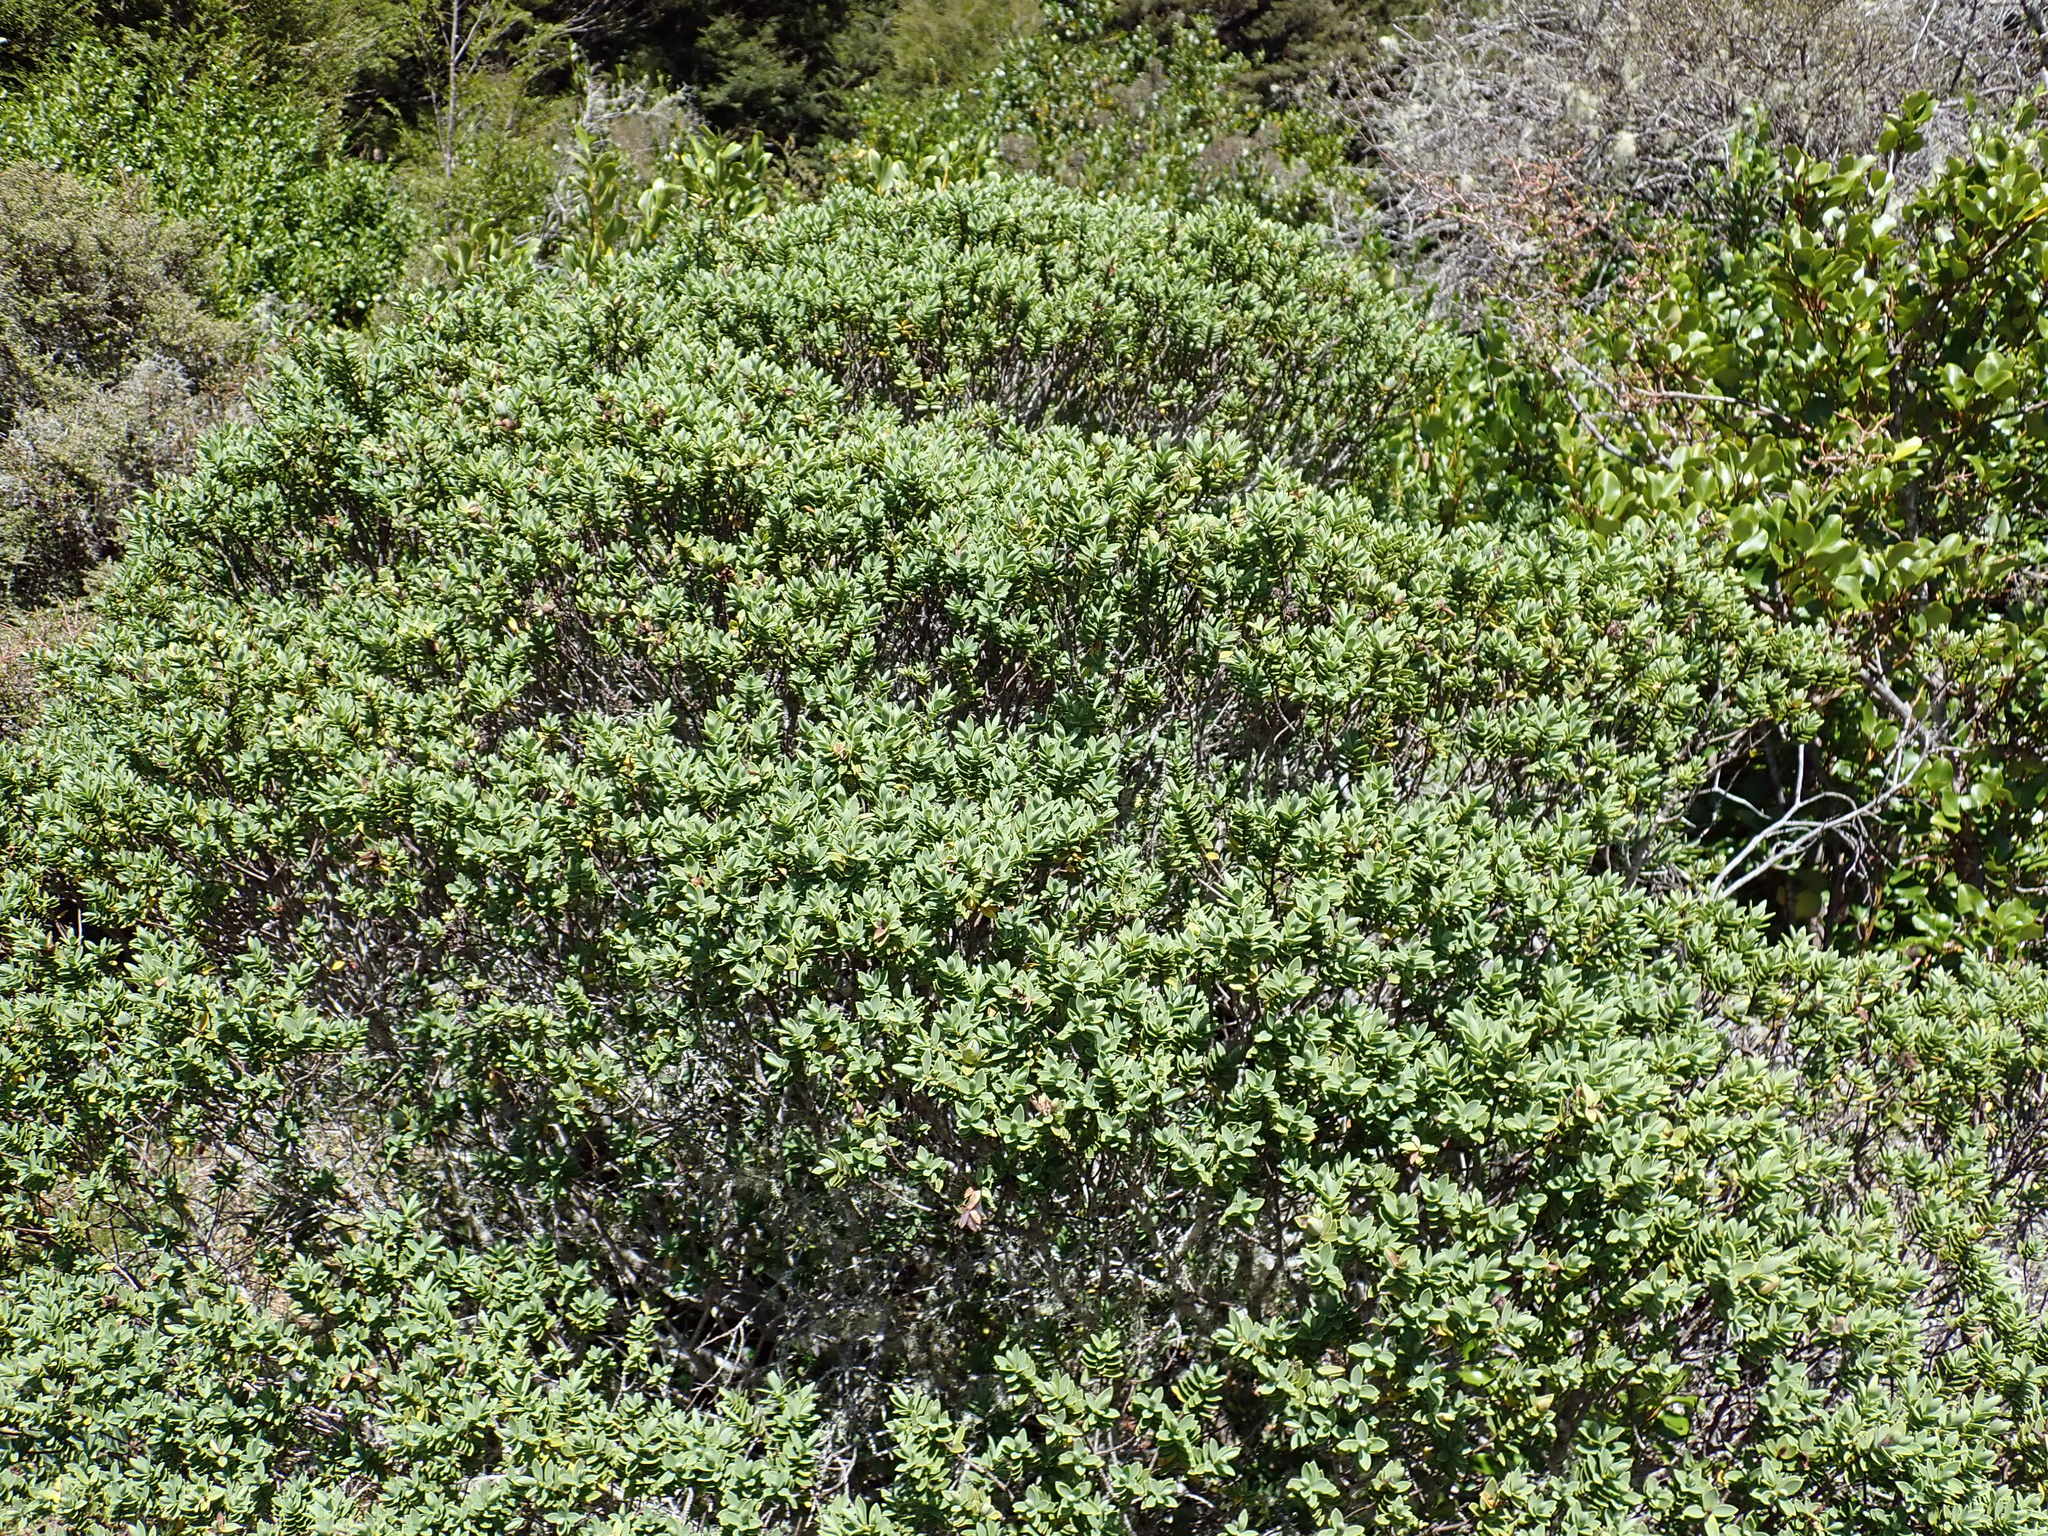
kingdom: Plantae
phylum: Tracheophyta
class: Magnoliopsida
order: Lamiales
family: Plantaginaceae
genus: Veronica
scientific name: Veronica topiaria
